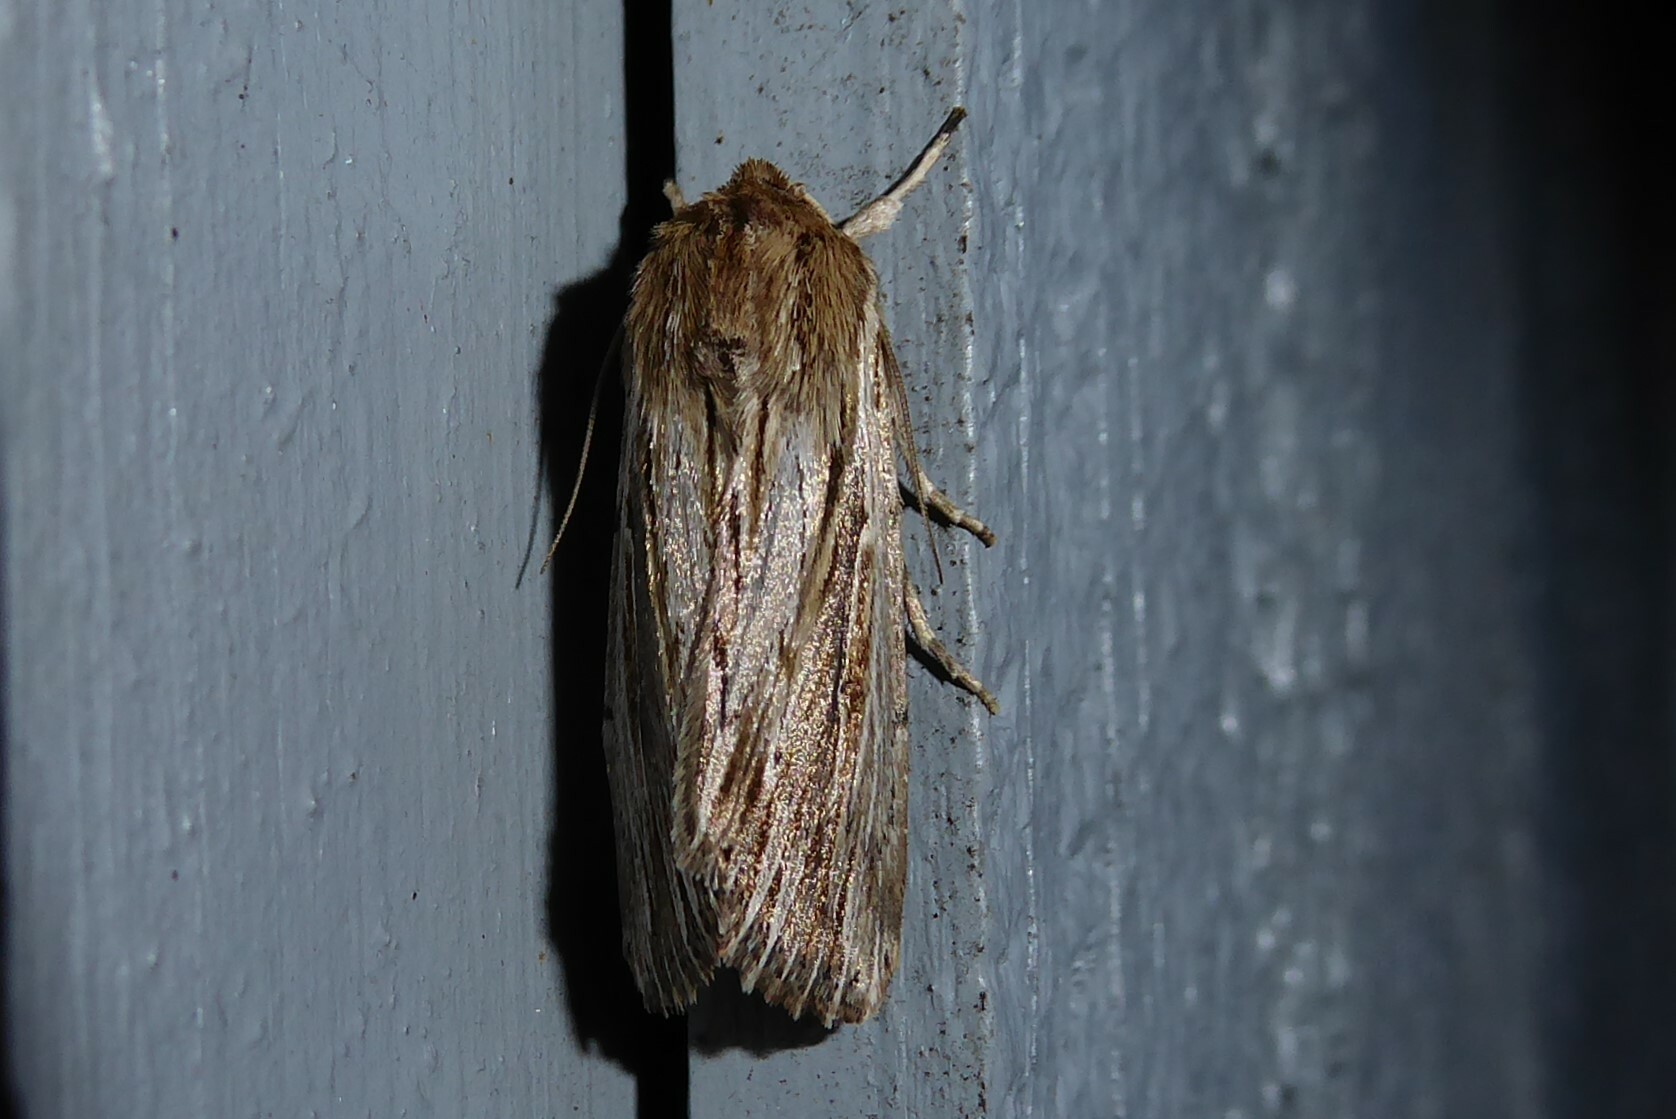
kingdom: Animalia
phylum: Arthropoda
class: Insecta
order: Lepidoptera
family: Noctuidae
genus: Persectania
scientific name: Persectania aversa
